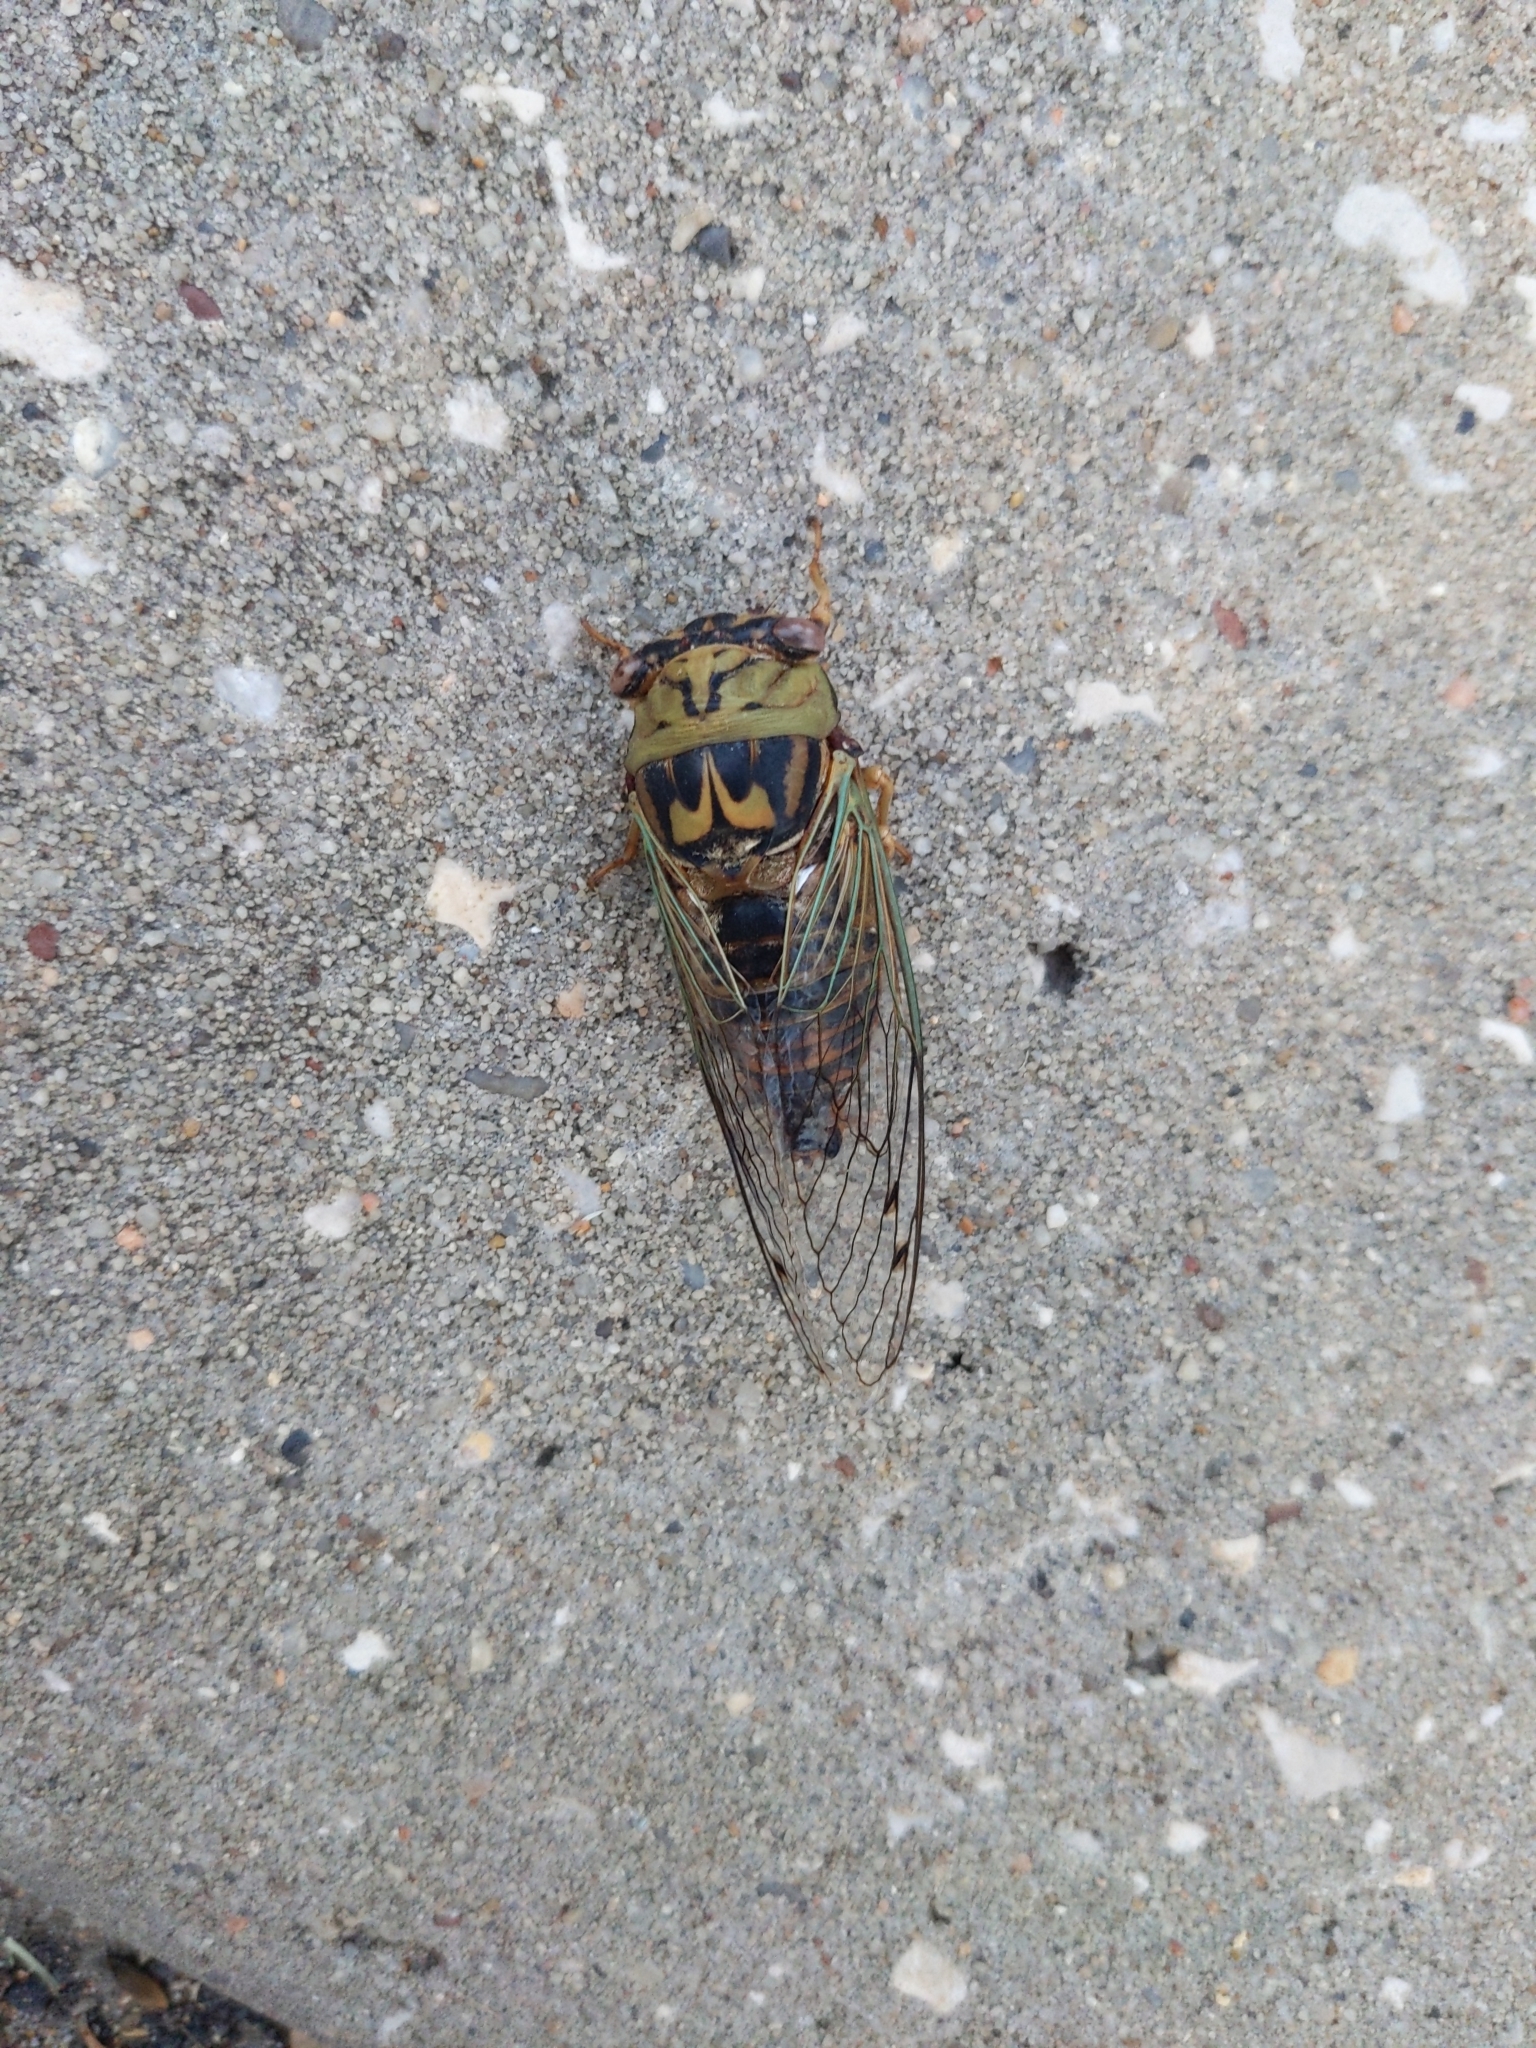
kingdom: Animalia
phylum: Arthropoda
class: Insecta
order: Hemiptera
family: Cicadidae
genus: Megatibicen
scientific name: Megatibicen resh
